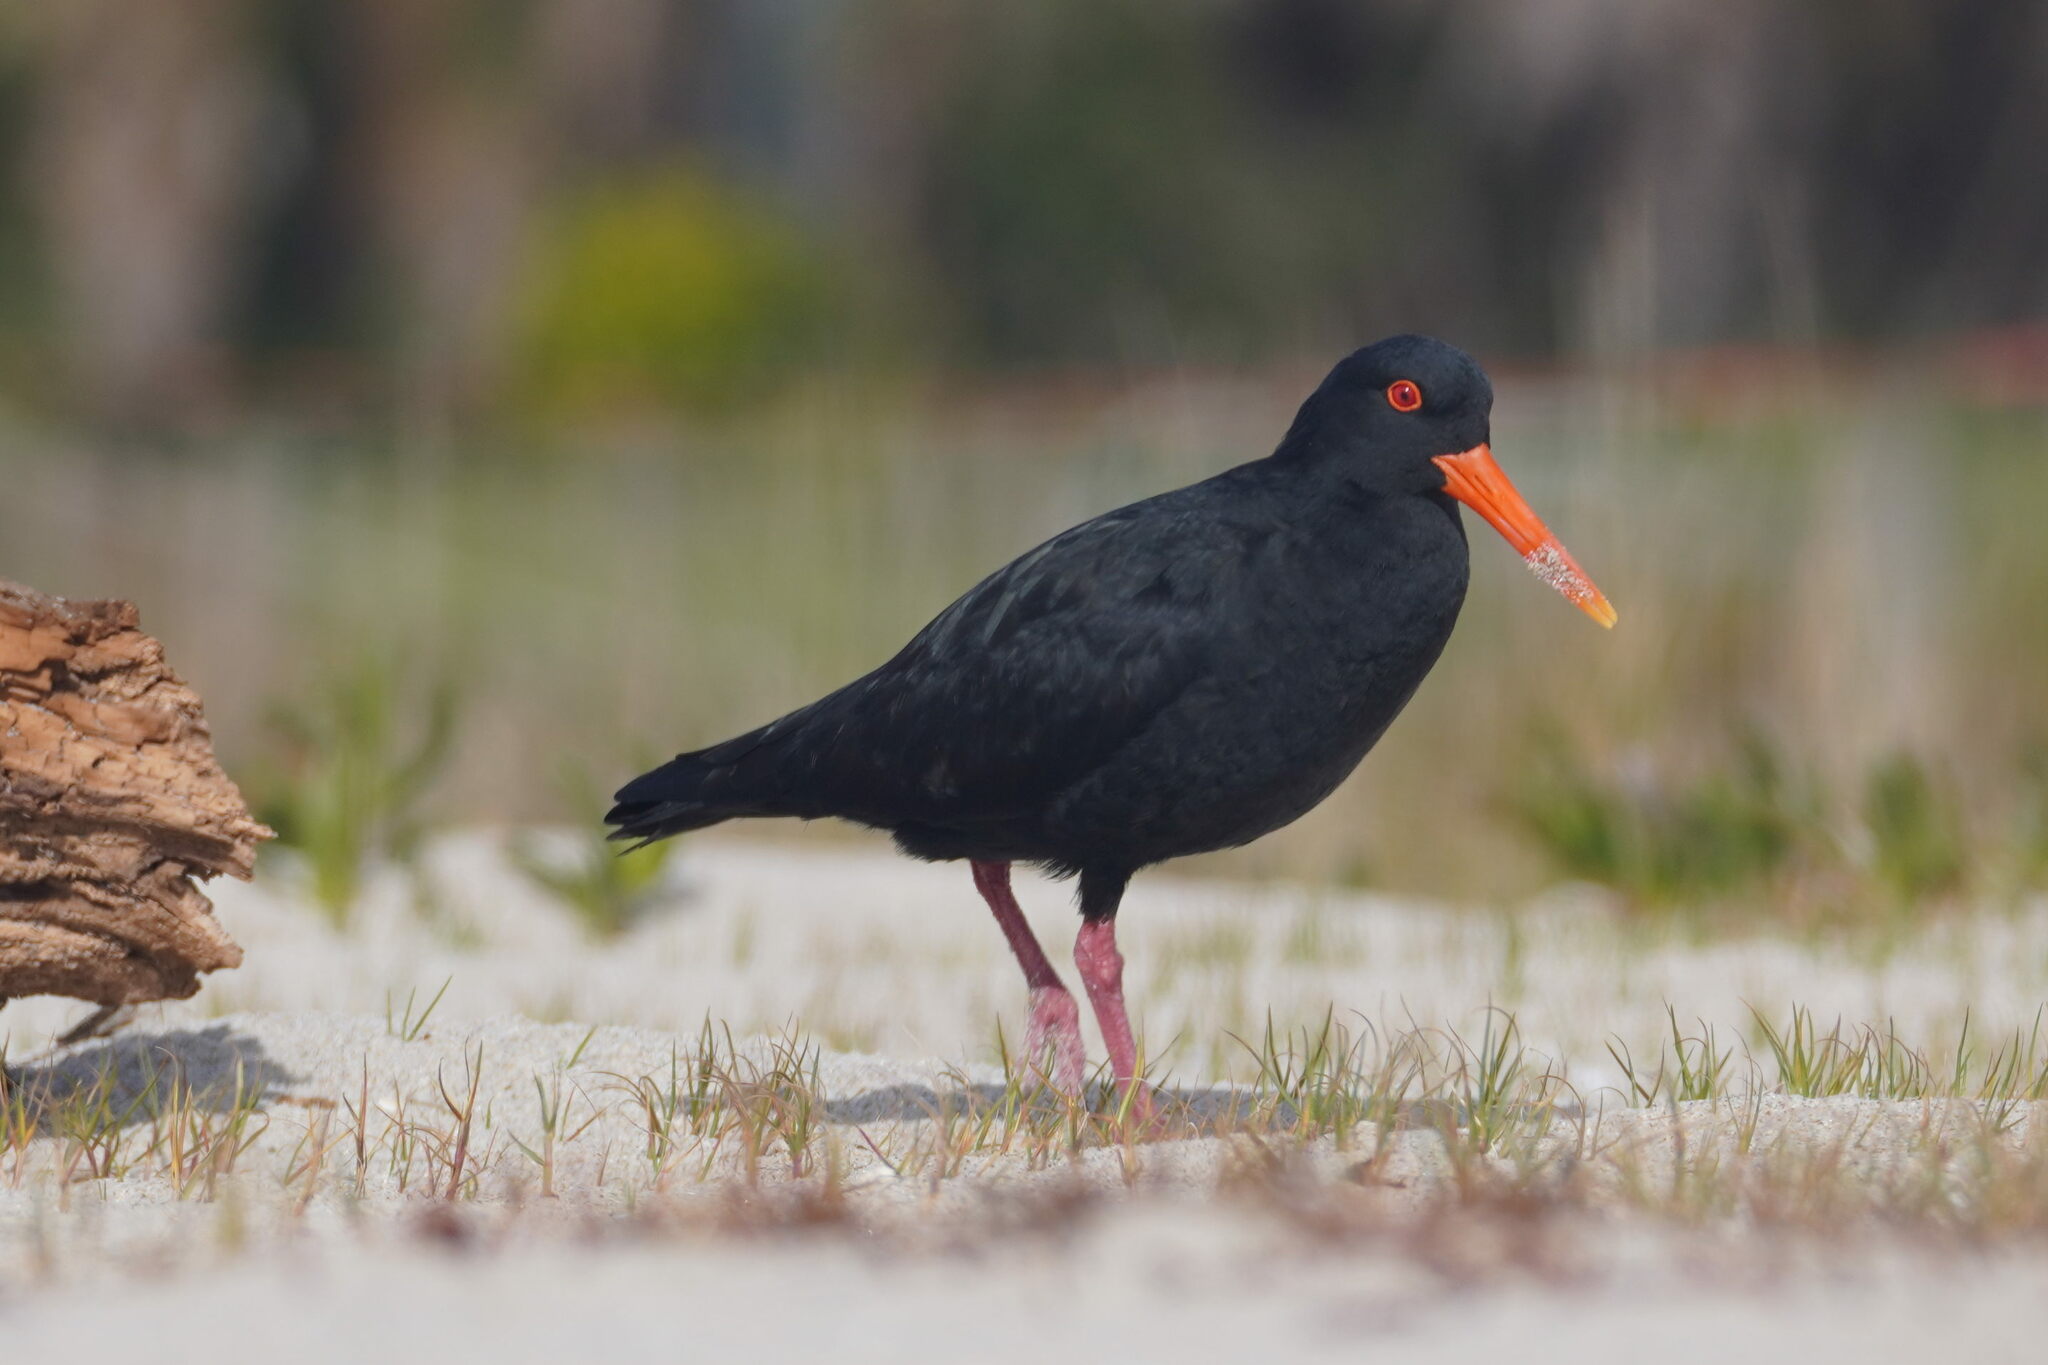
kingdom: Animalia
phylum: Chordata
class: Aves
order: Charadriiformes
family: Haematopodidae
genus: Haematopus
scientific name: Haematopus unicolor
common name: Variable oystercatcher
